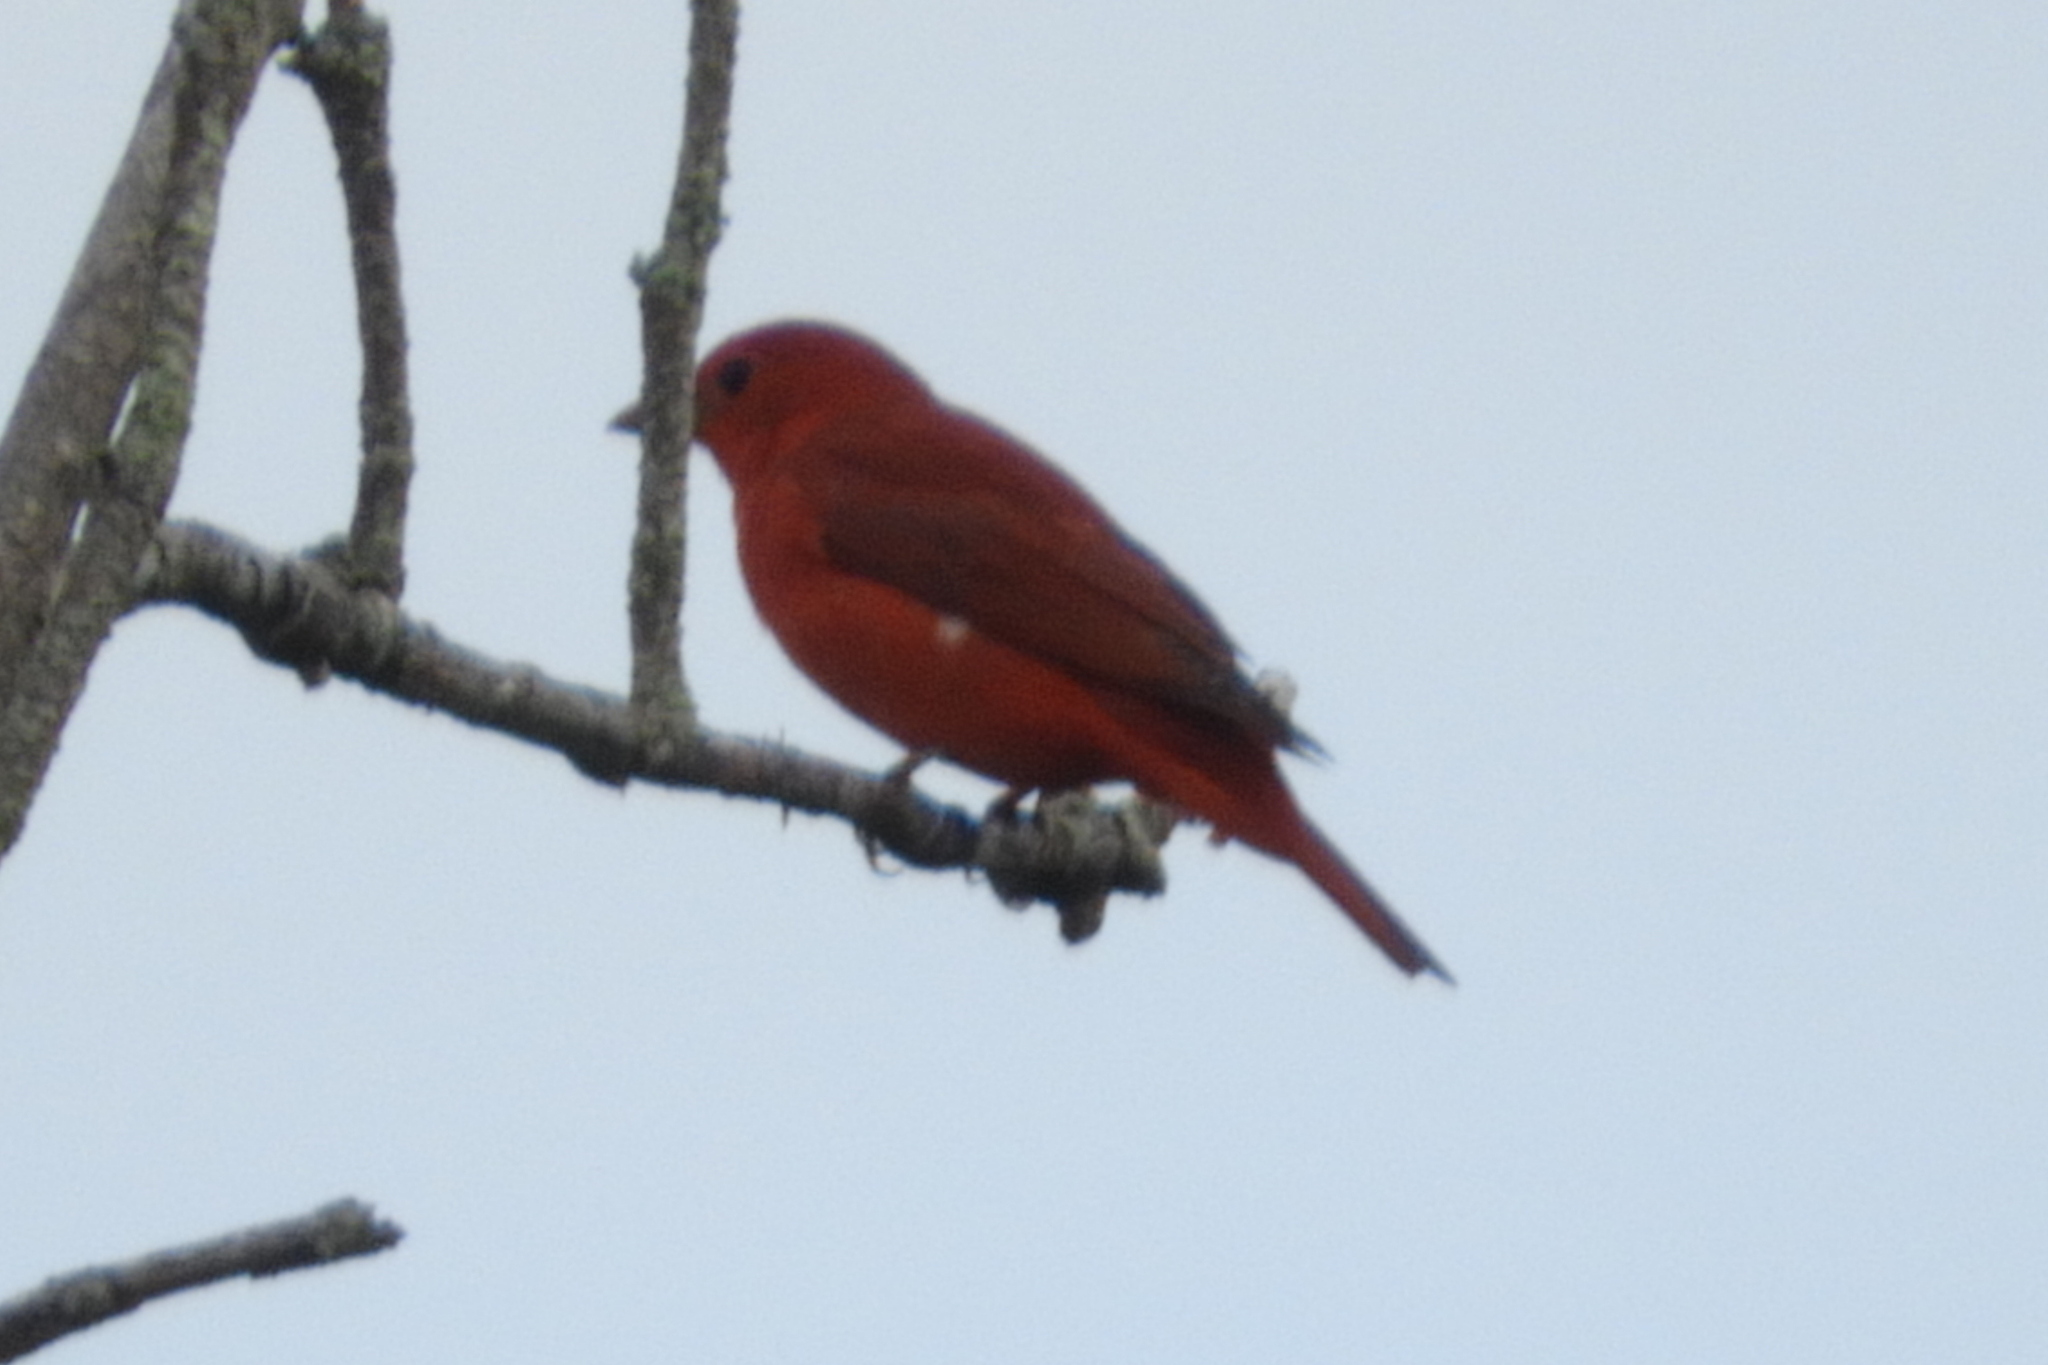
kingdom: Animalia
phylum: Chordata
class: Aves
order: Passeriformes
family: Cardinalidae
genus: Piranga
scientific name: Piranga rubra
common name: Summer tanager
